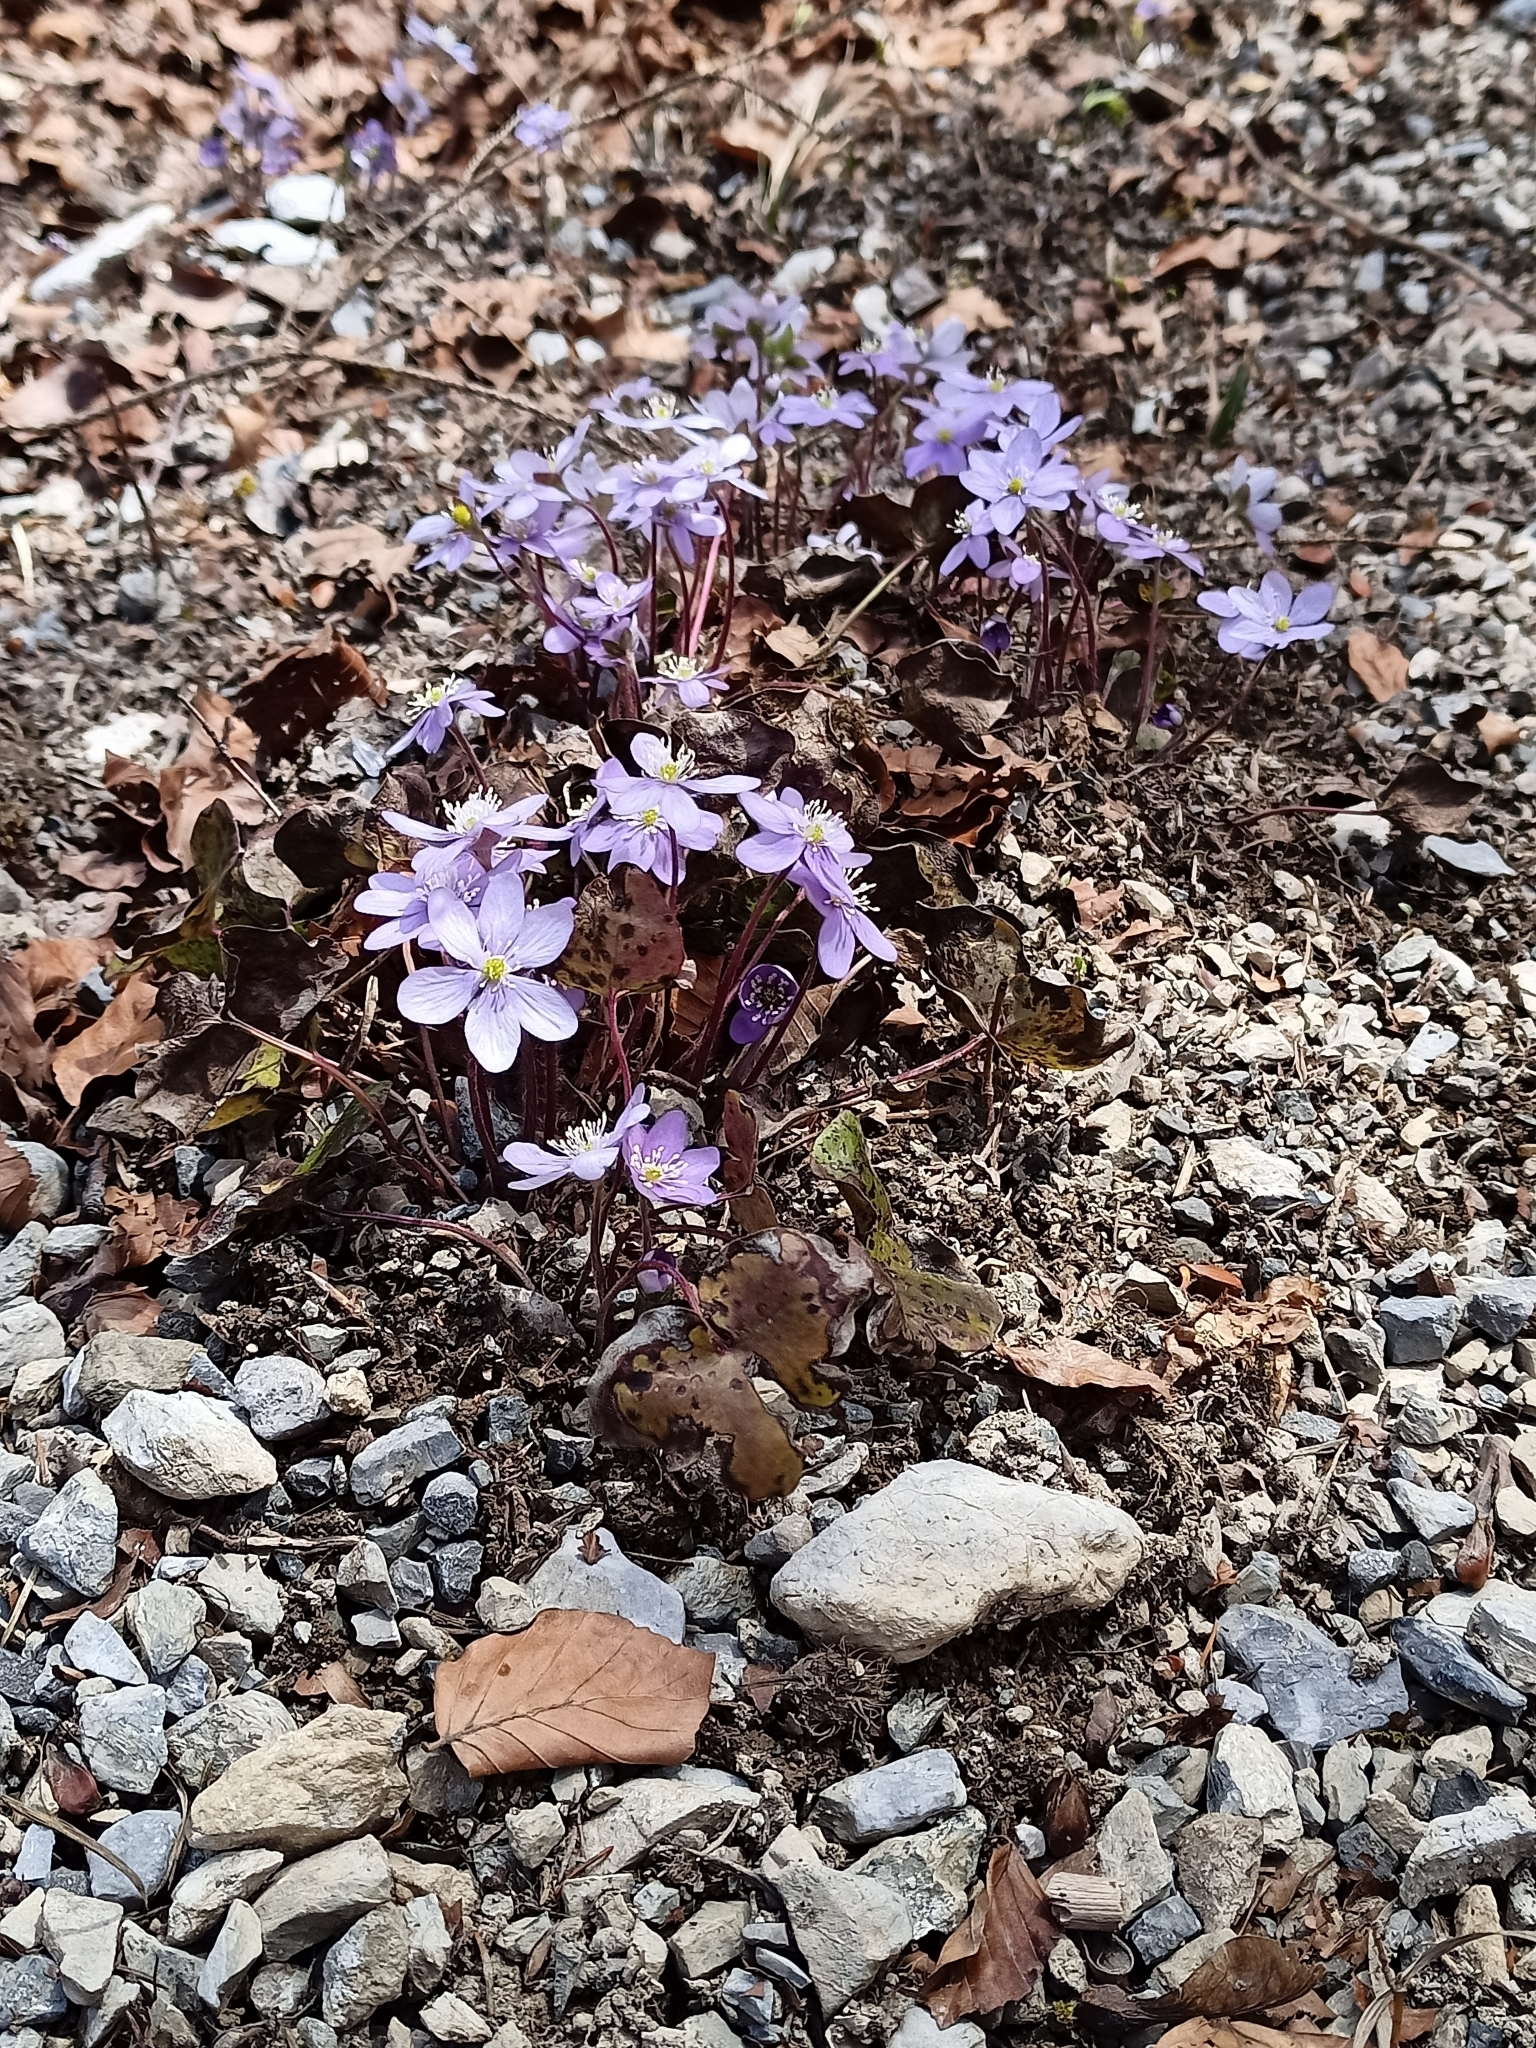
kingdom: Plantae
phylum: Tracheophyta
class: Magnoliopsida
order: Ranunculales
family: Ranunculaceae
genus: Hepatica
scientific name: Hepatica nobilis
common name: Liverleaf
